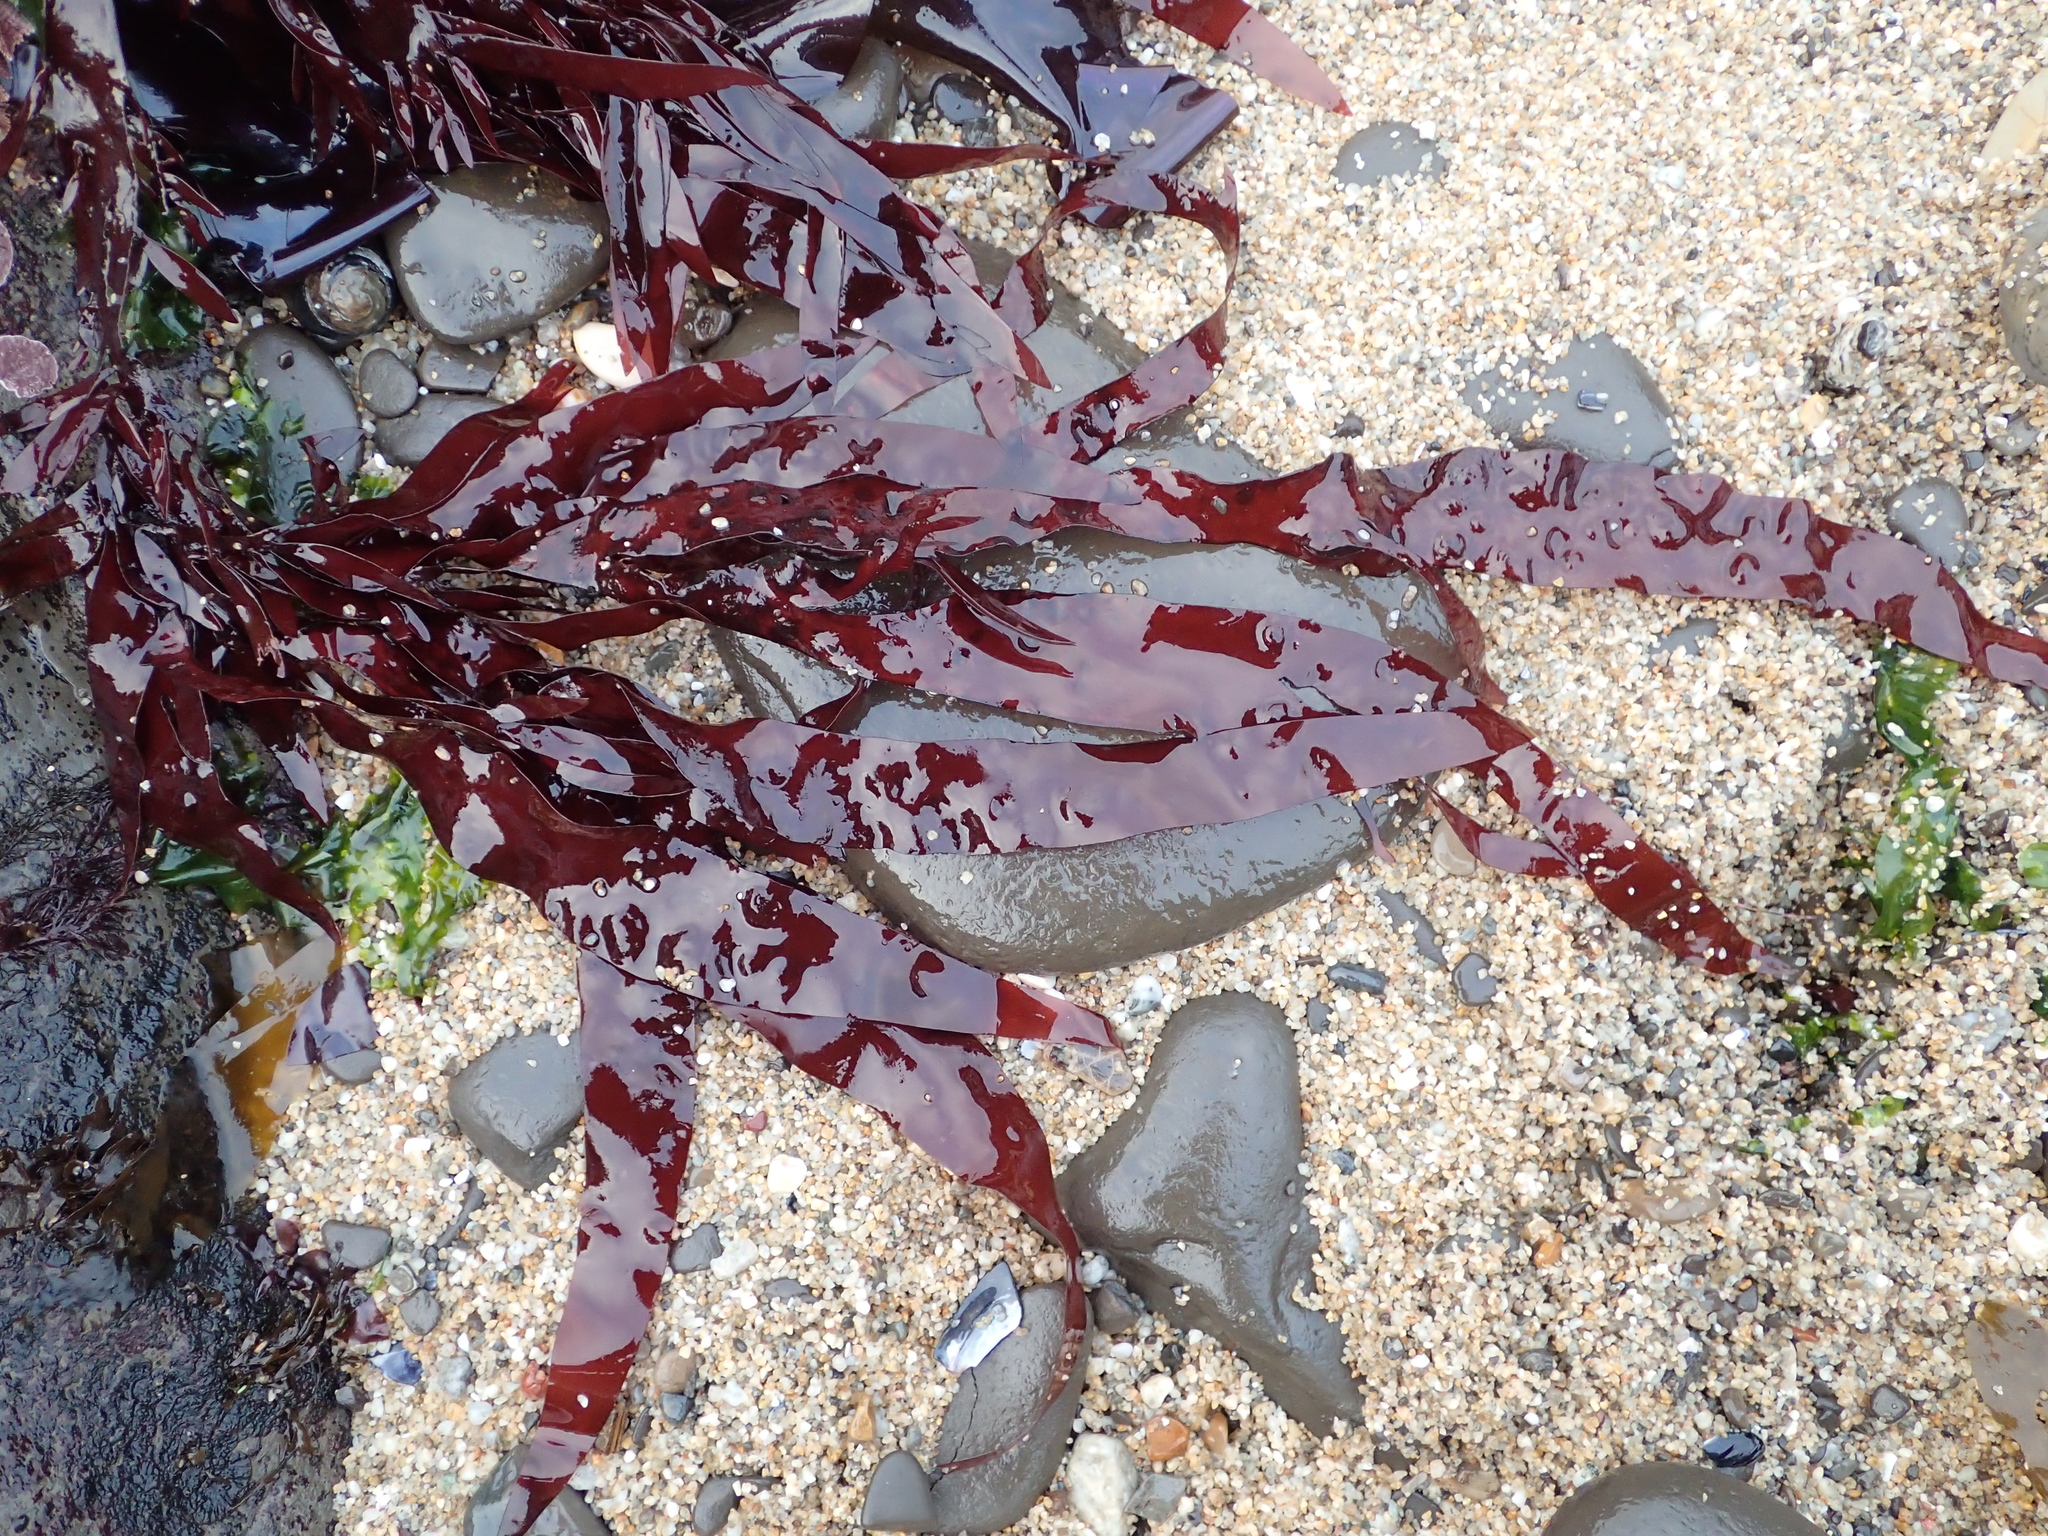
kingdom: Plantae
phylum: Rhodophyta
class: Florideophyceae
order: Halymeniales
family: Halymeniaceae
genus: Grateloupia
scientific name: Grateloupia Prionitis sternbergii
